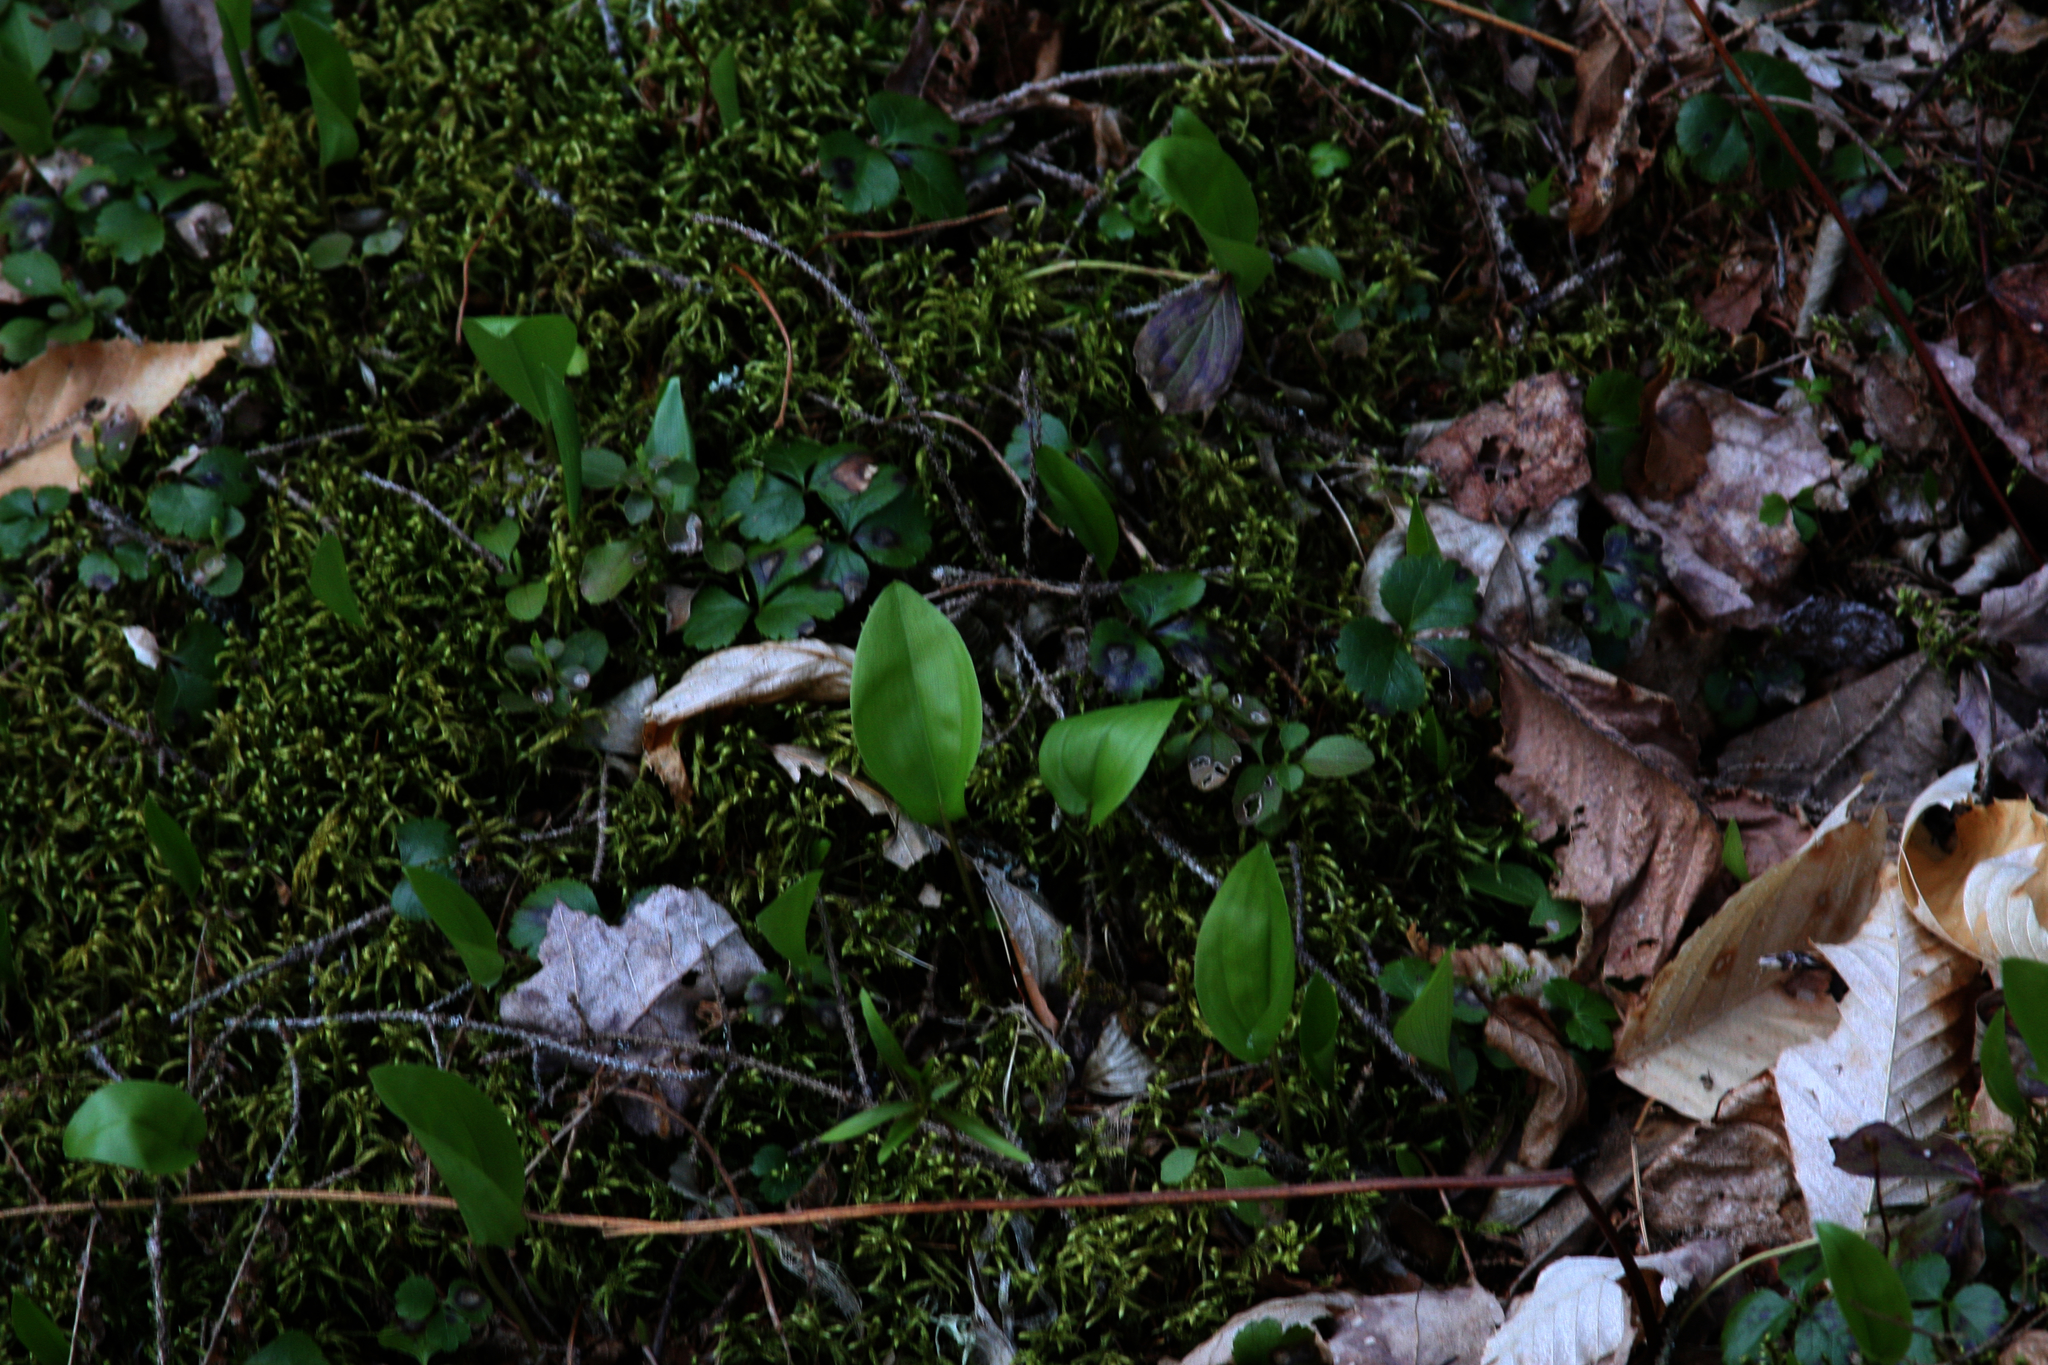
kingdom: Plantae
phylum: Tracheophyta
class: Liliopsida
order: Asparagales
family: Asparagaceae
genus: Maianthemum
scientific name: Maianthemum canadense
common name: False lily-of-the-valley
